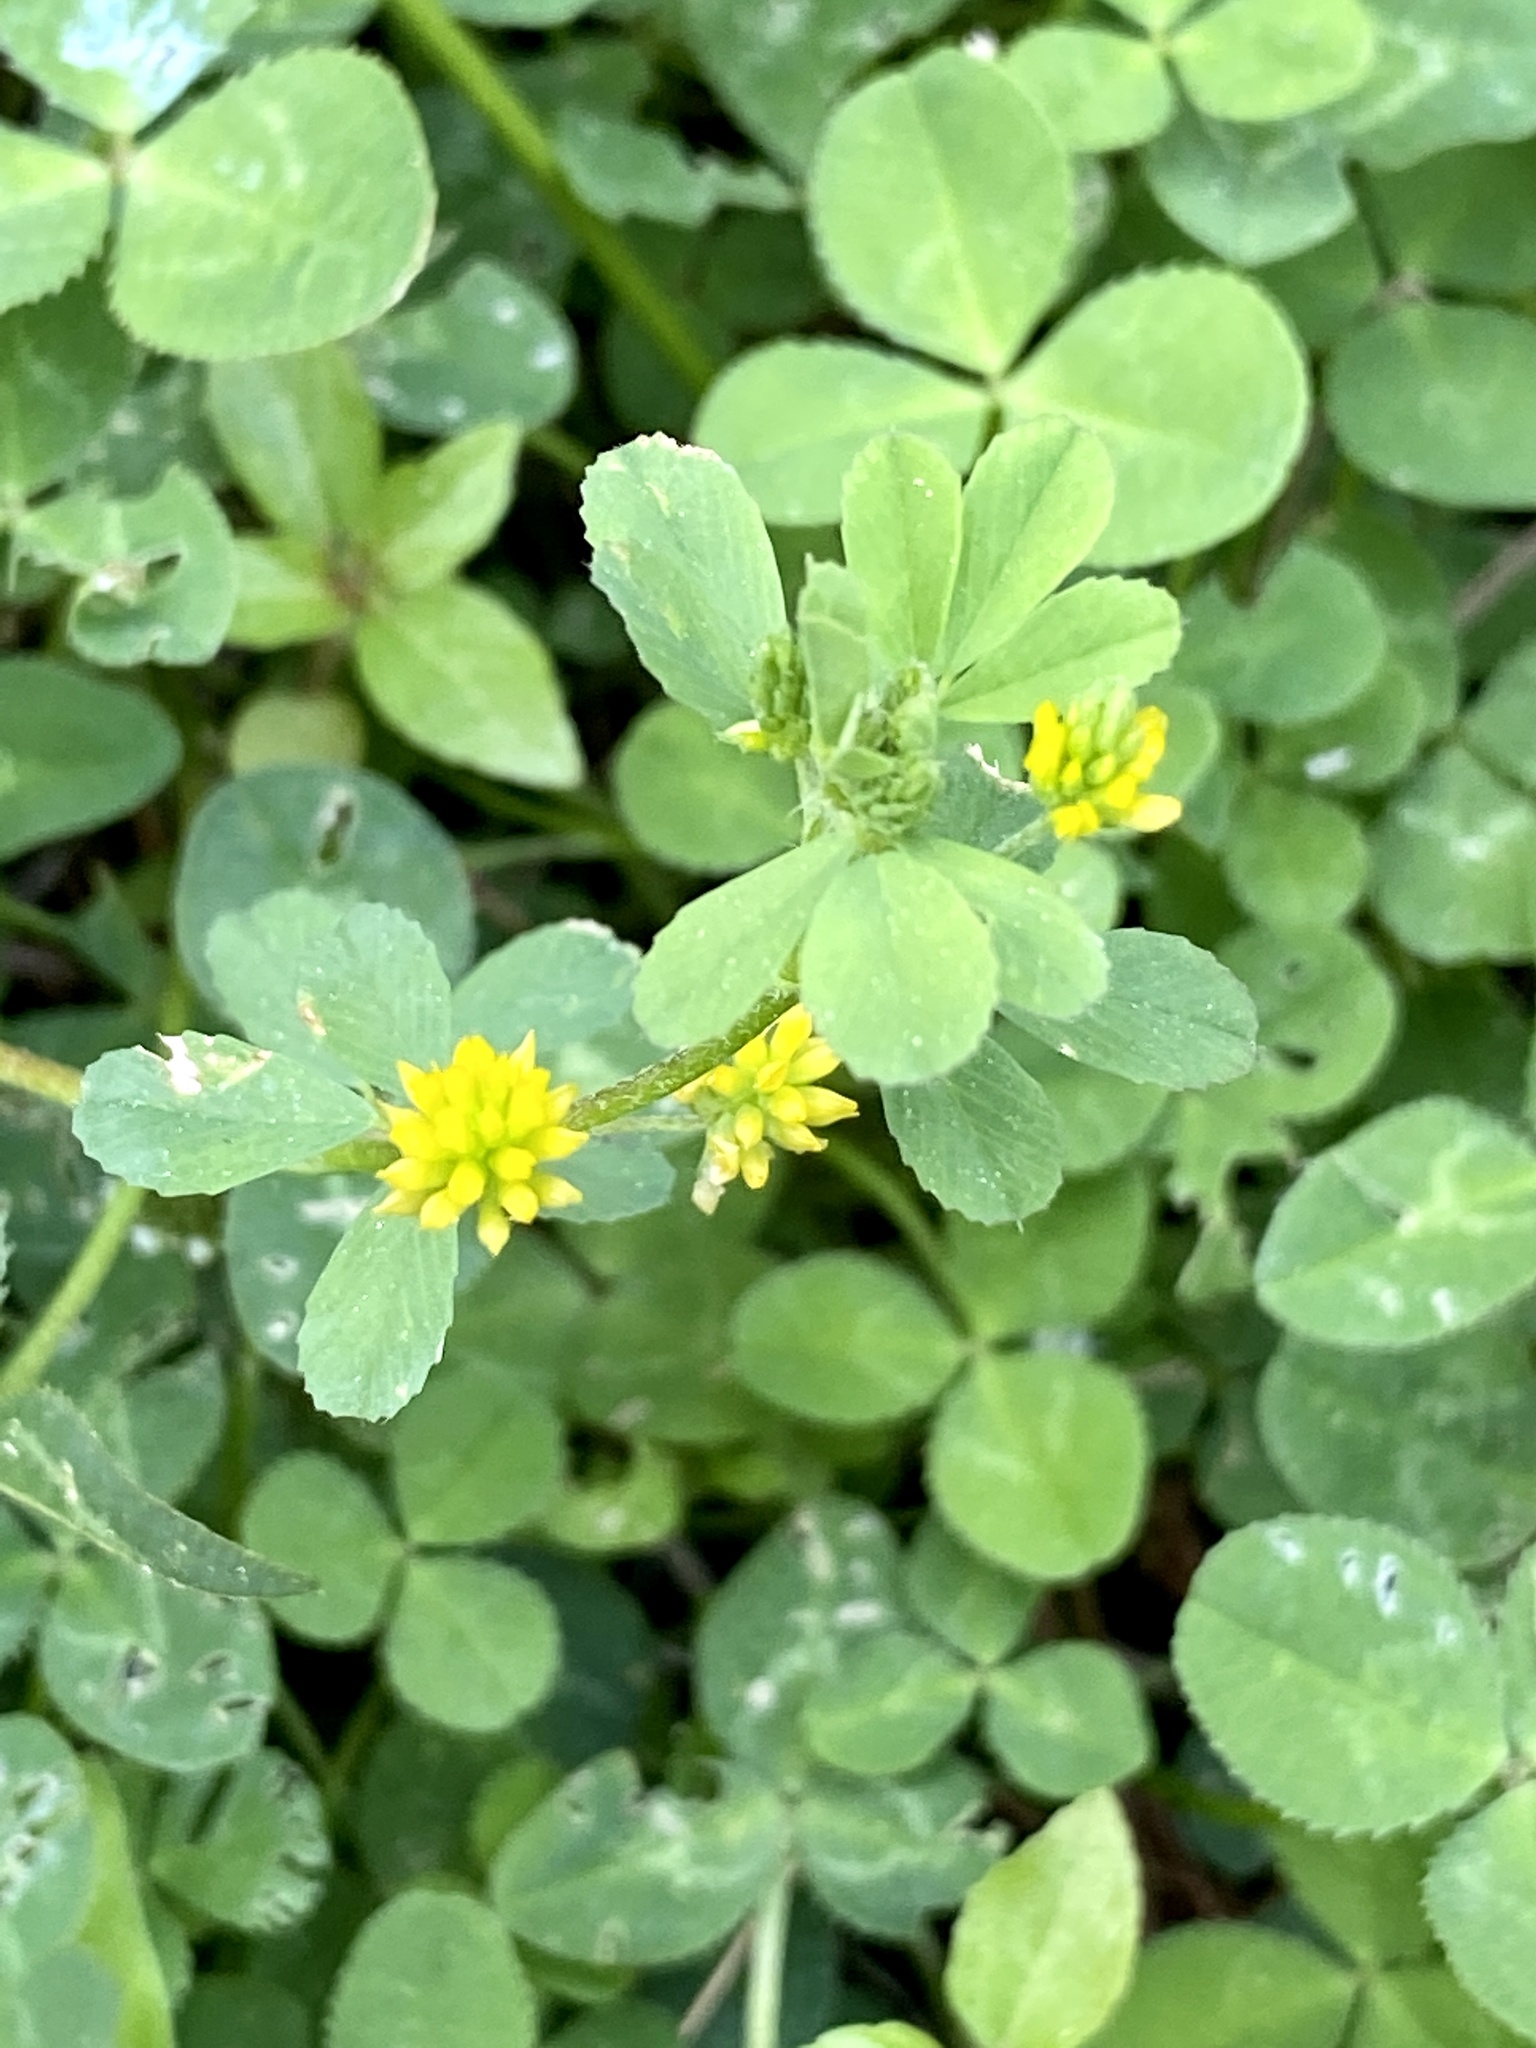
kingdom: Plantae
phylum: Tracheophyta
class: Magnoliopsida
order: Fabales
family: Fabaceae
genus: Trifolium
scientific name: Trifolium dubium
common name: Suckling clover
